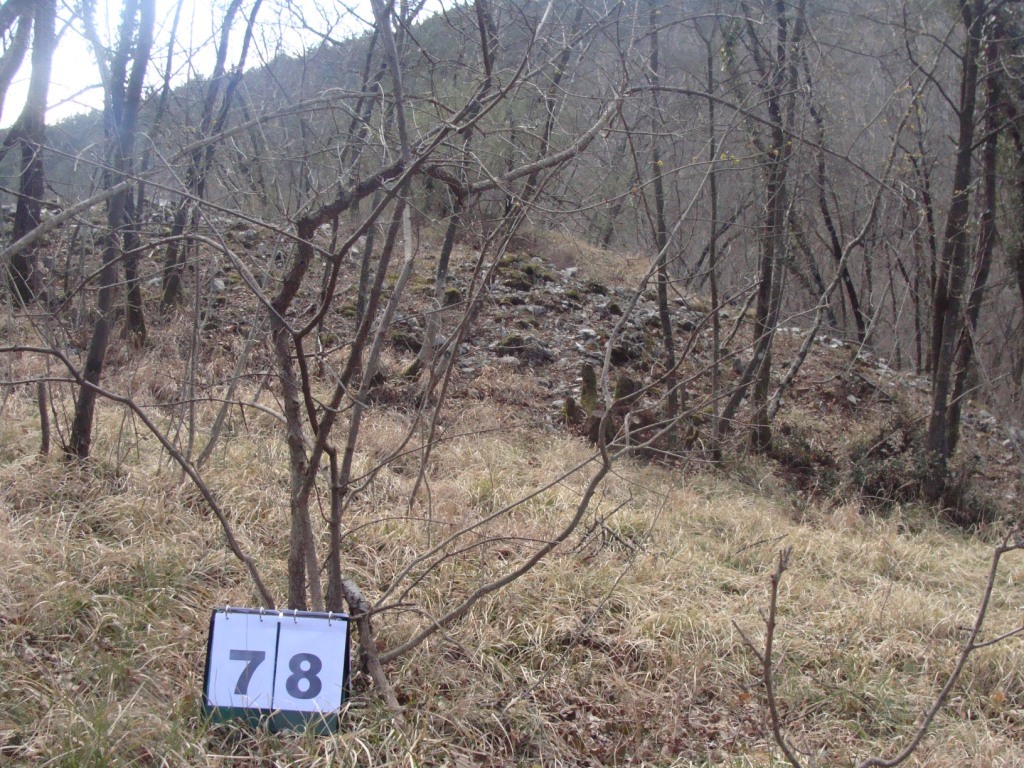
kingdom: Plantae
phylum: Tracheophyta
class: Magnoliopsida
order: Cornales
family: Cornaceae
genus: Cornus
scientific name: Cornus mas
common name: Cornelian-cherry
